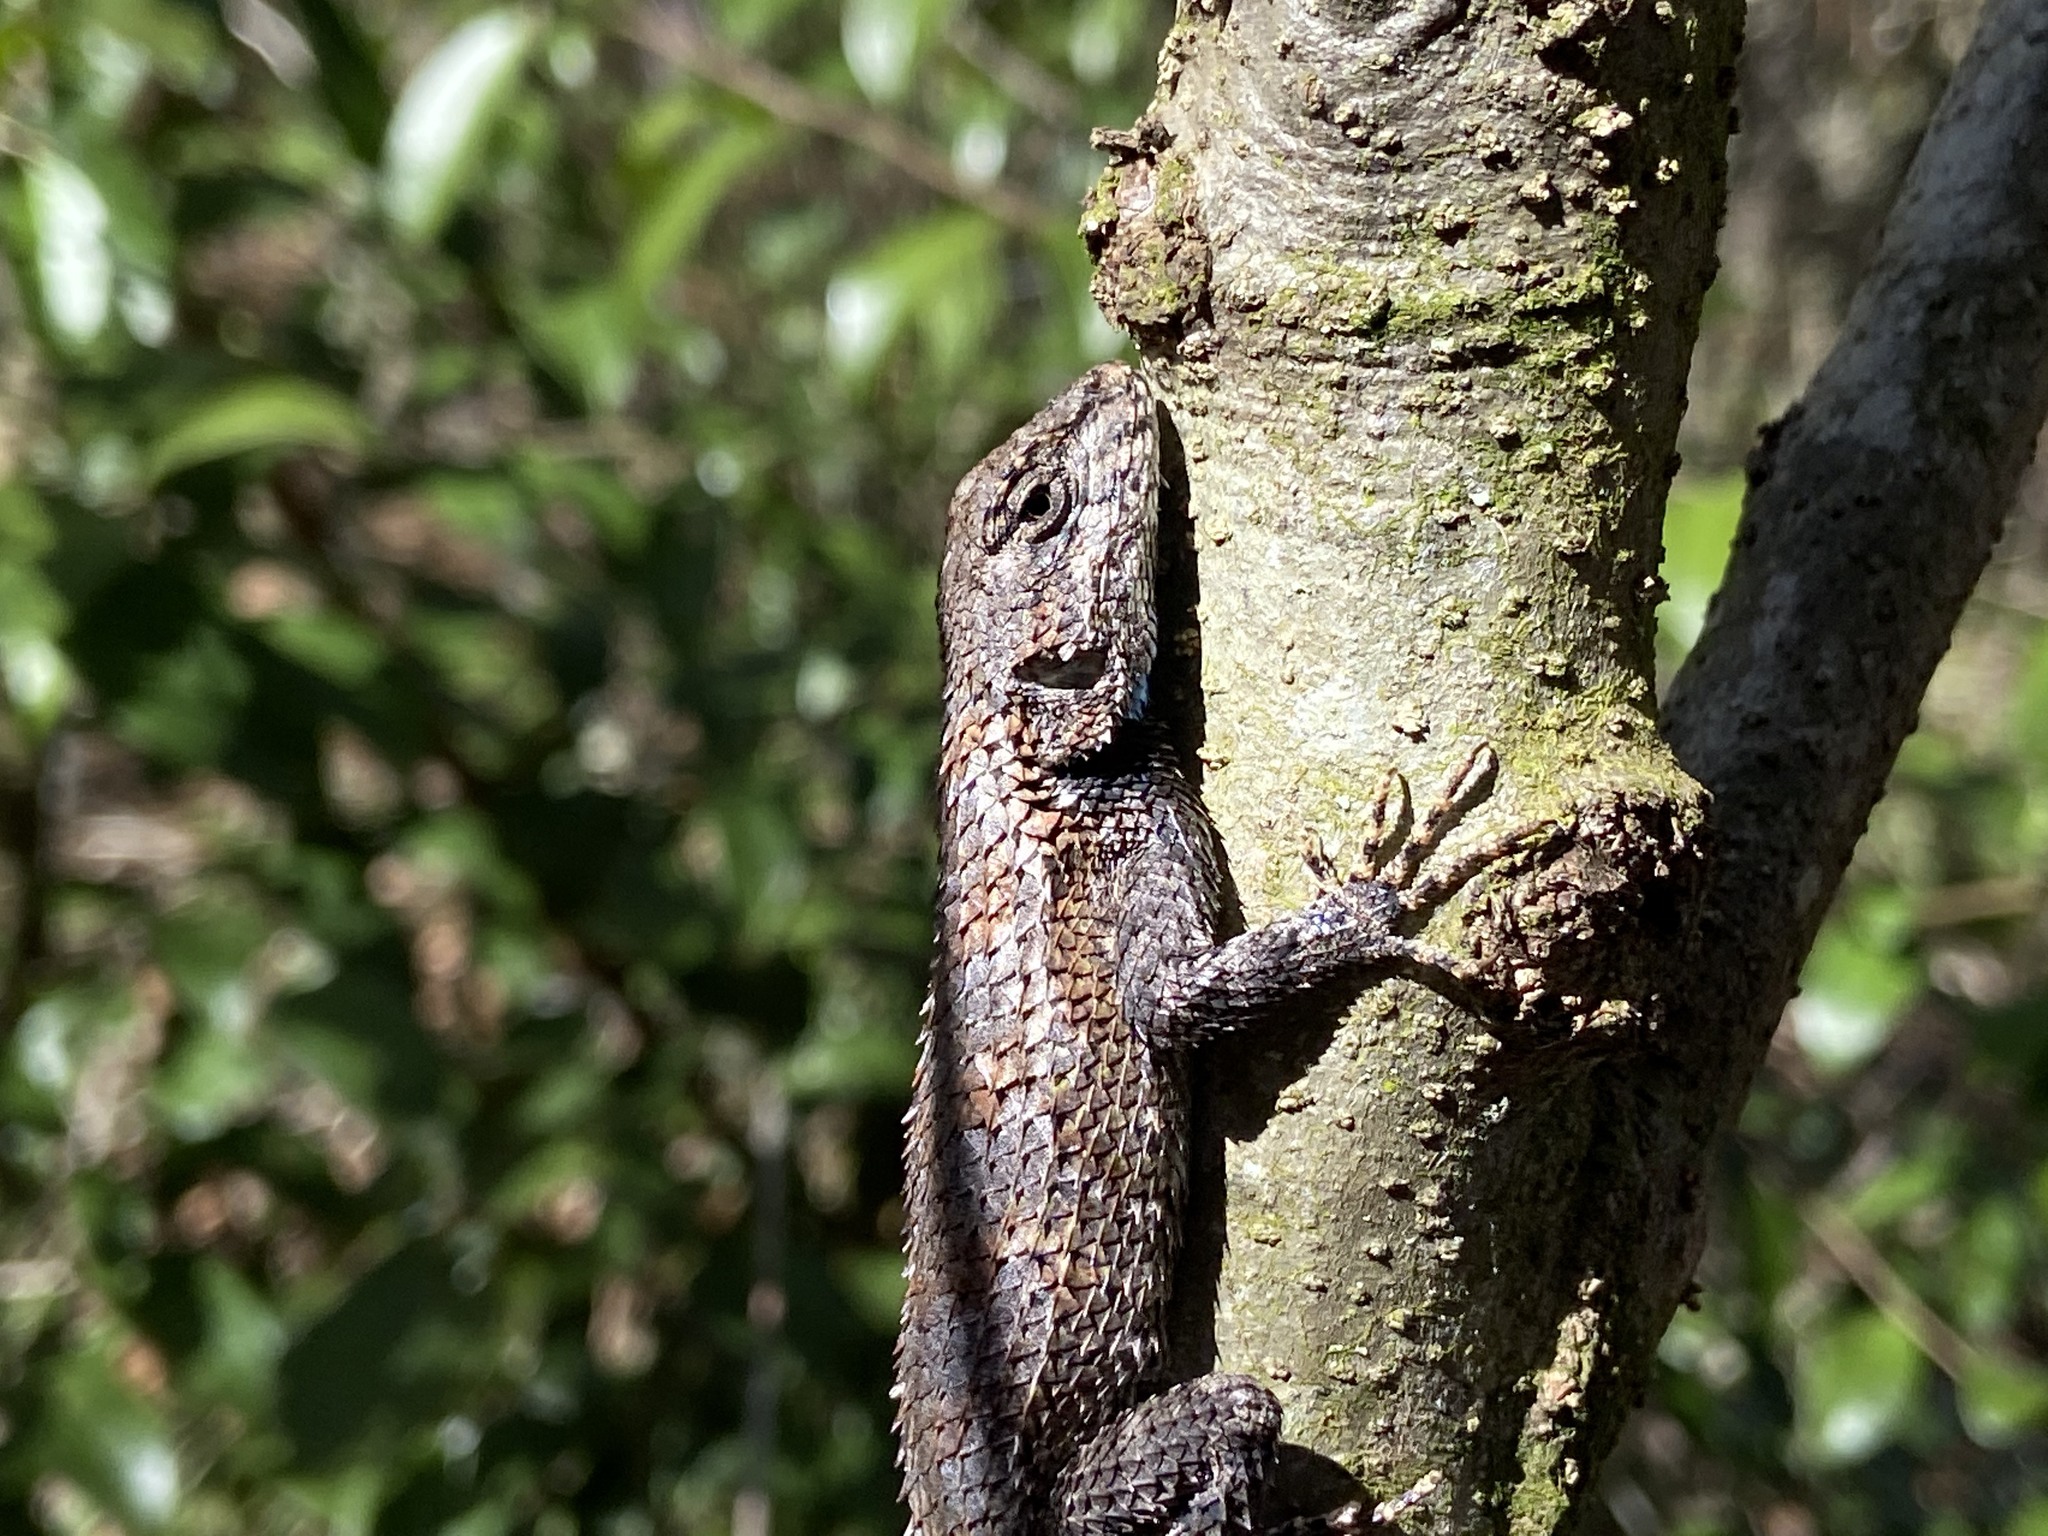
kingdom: Animalia
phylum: Chordata
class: Squamata
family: Phrynosomatidae
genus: Sceloporus
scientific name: Sceloporus undulatus
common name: Eastern fence lizard
